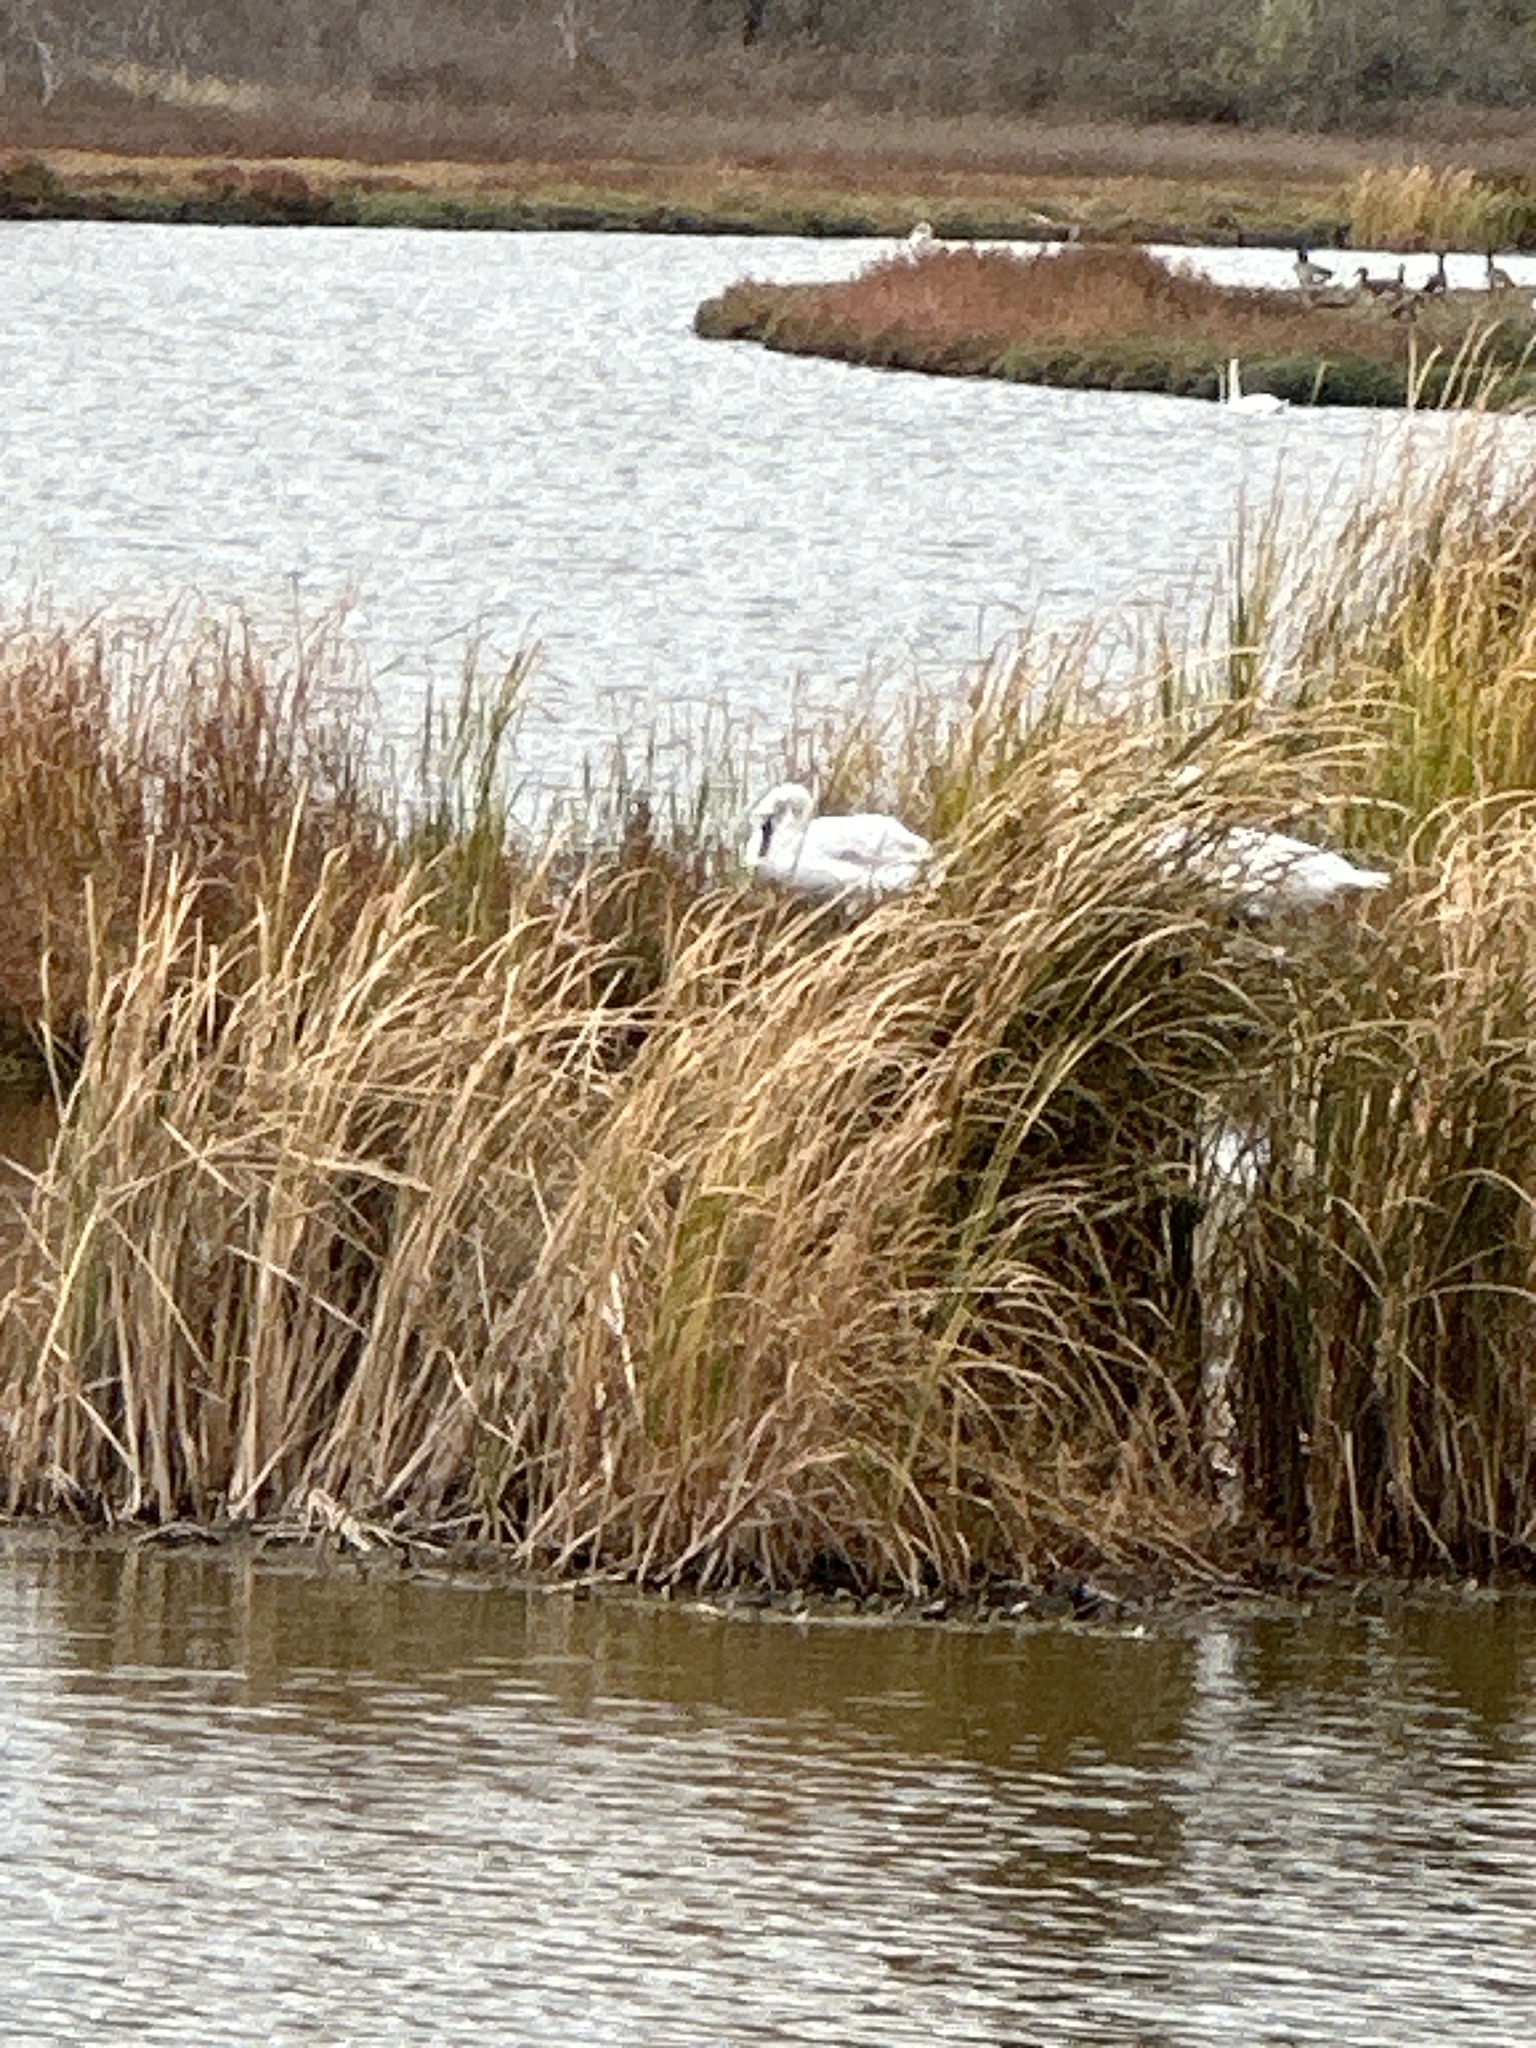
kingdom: Animalia
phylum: Chordata
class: Aves
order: Anseriformes
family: Anatidae
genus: Cygnus
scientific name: Cygnus olor
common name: Mute swan
